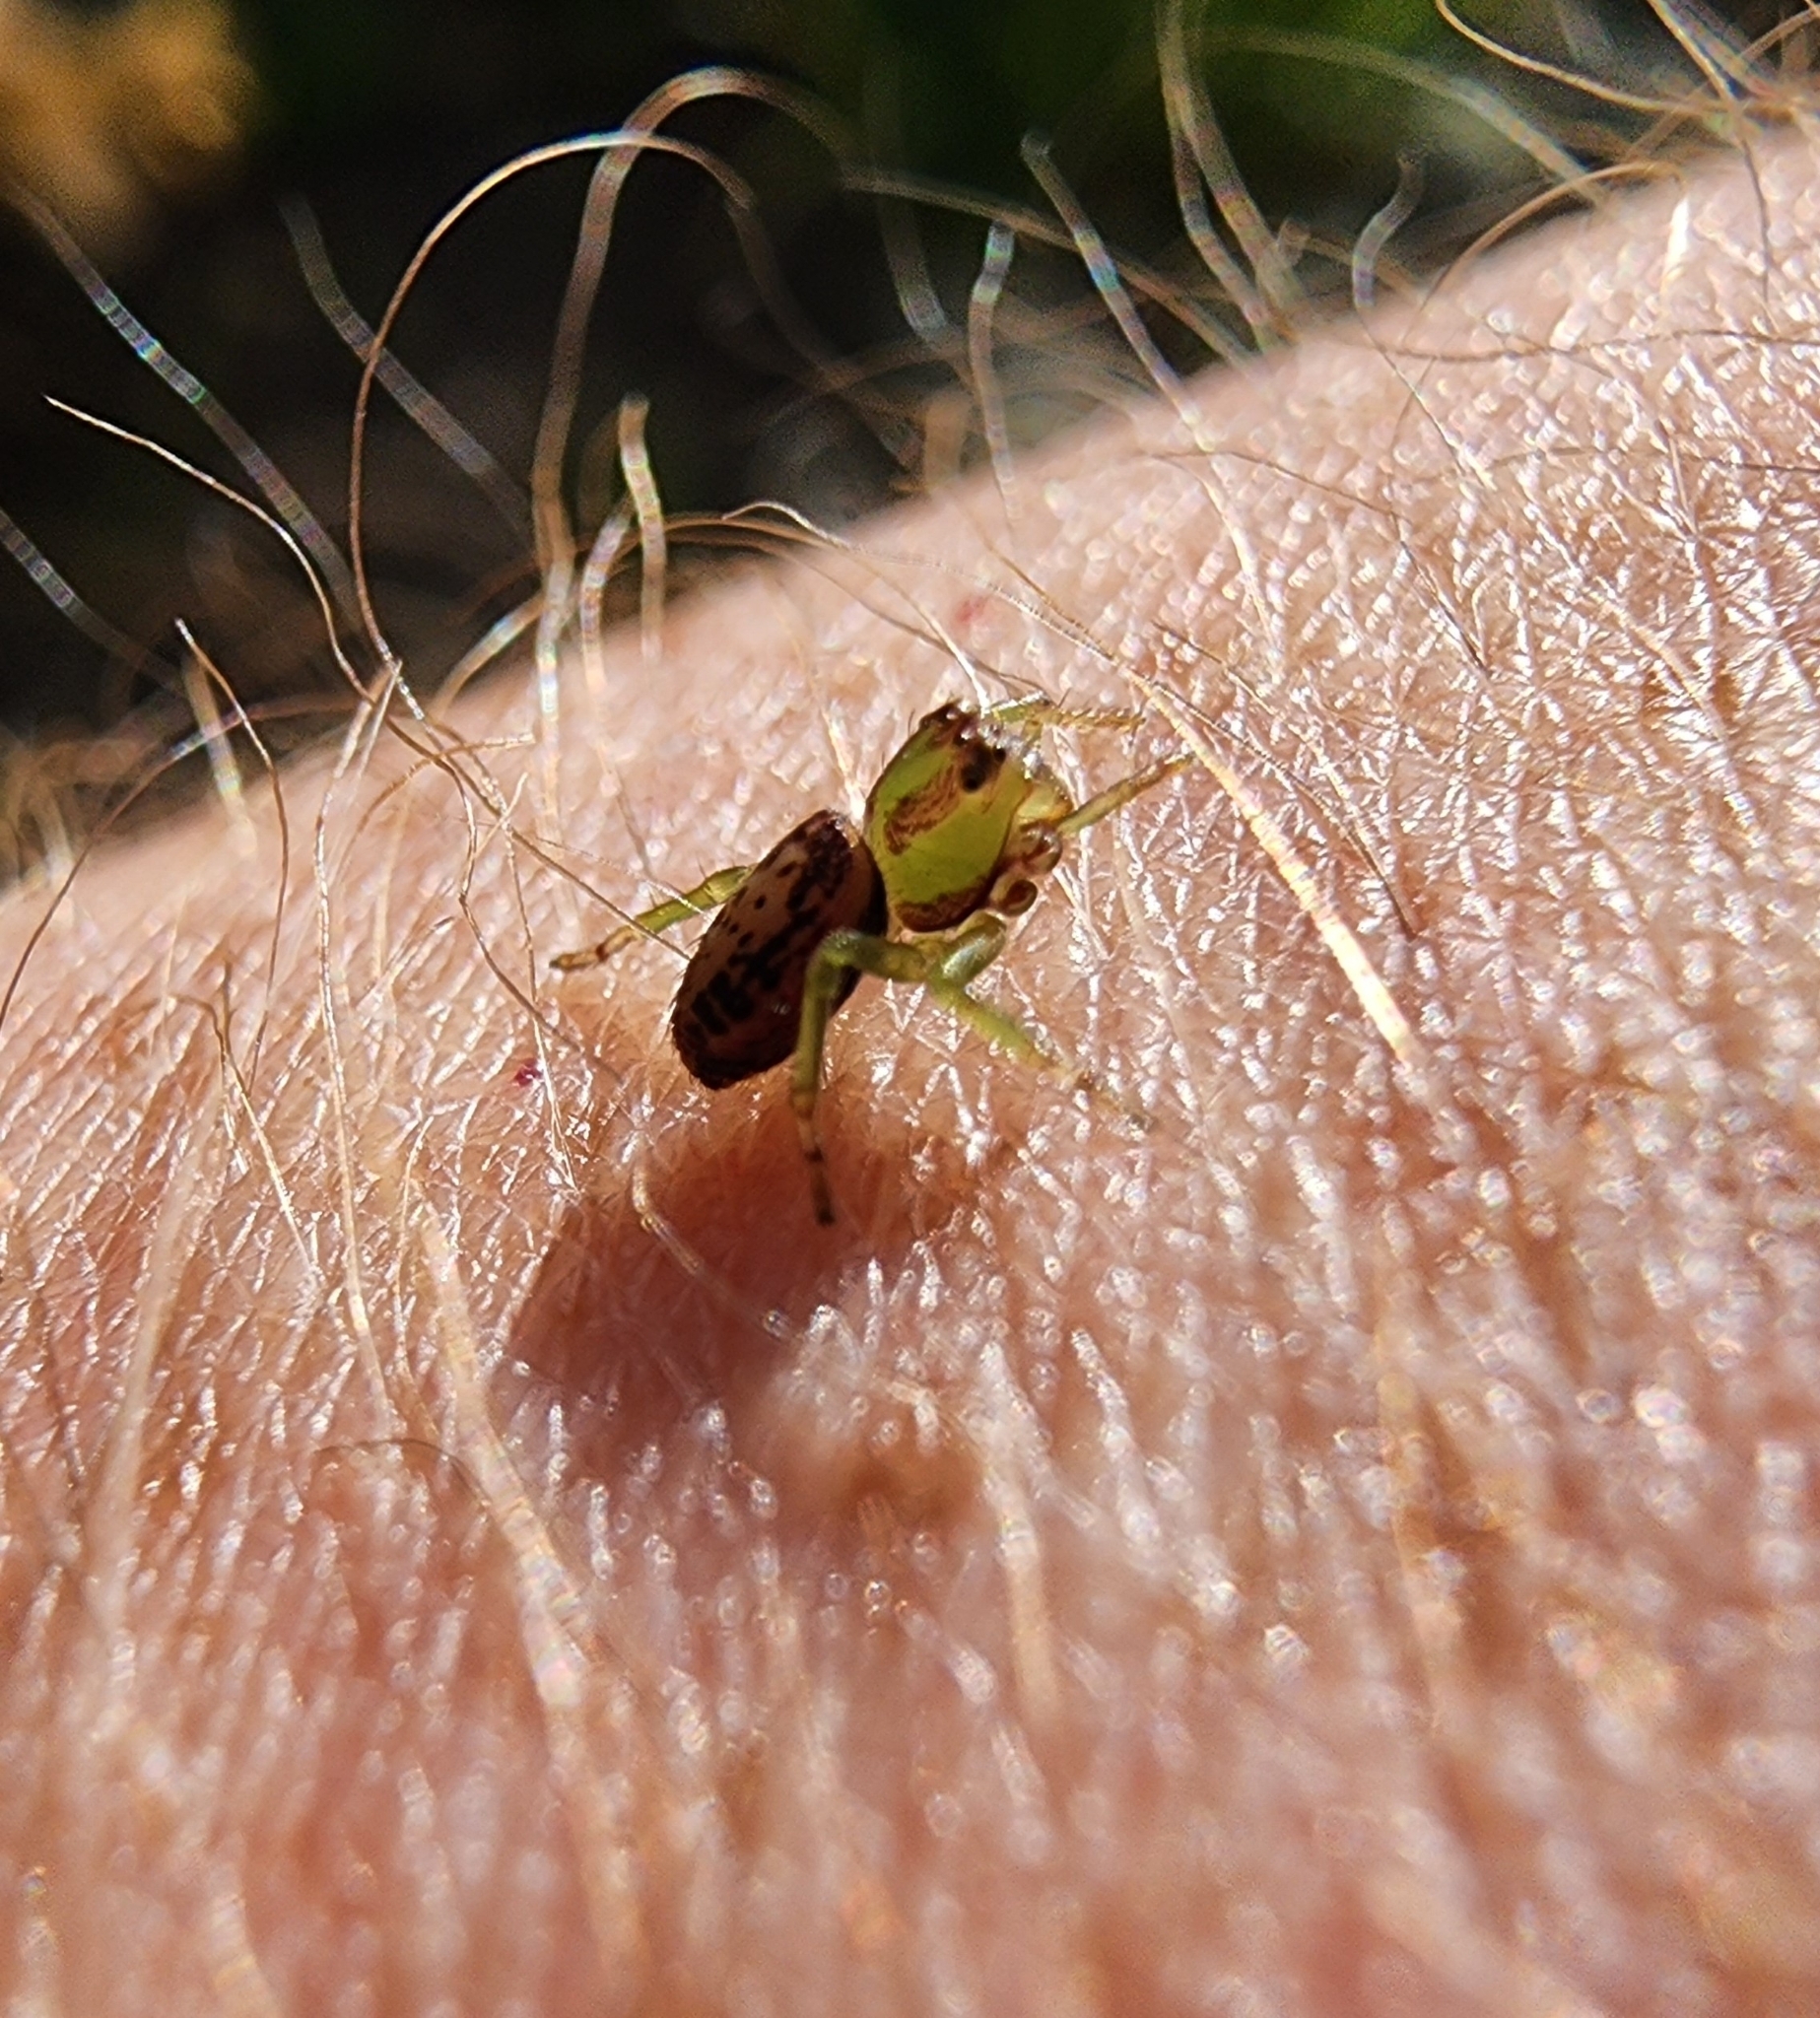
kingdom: Animalia
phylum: Arthropoda
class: Arachnida
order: Araneae
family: Thomisidae
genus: Diaea
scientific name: Diaea ambara
